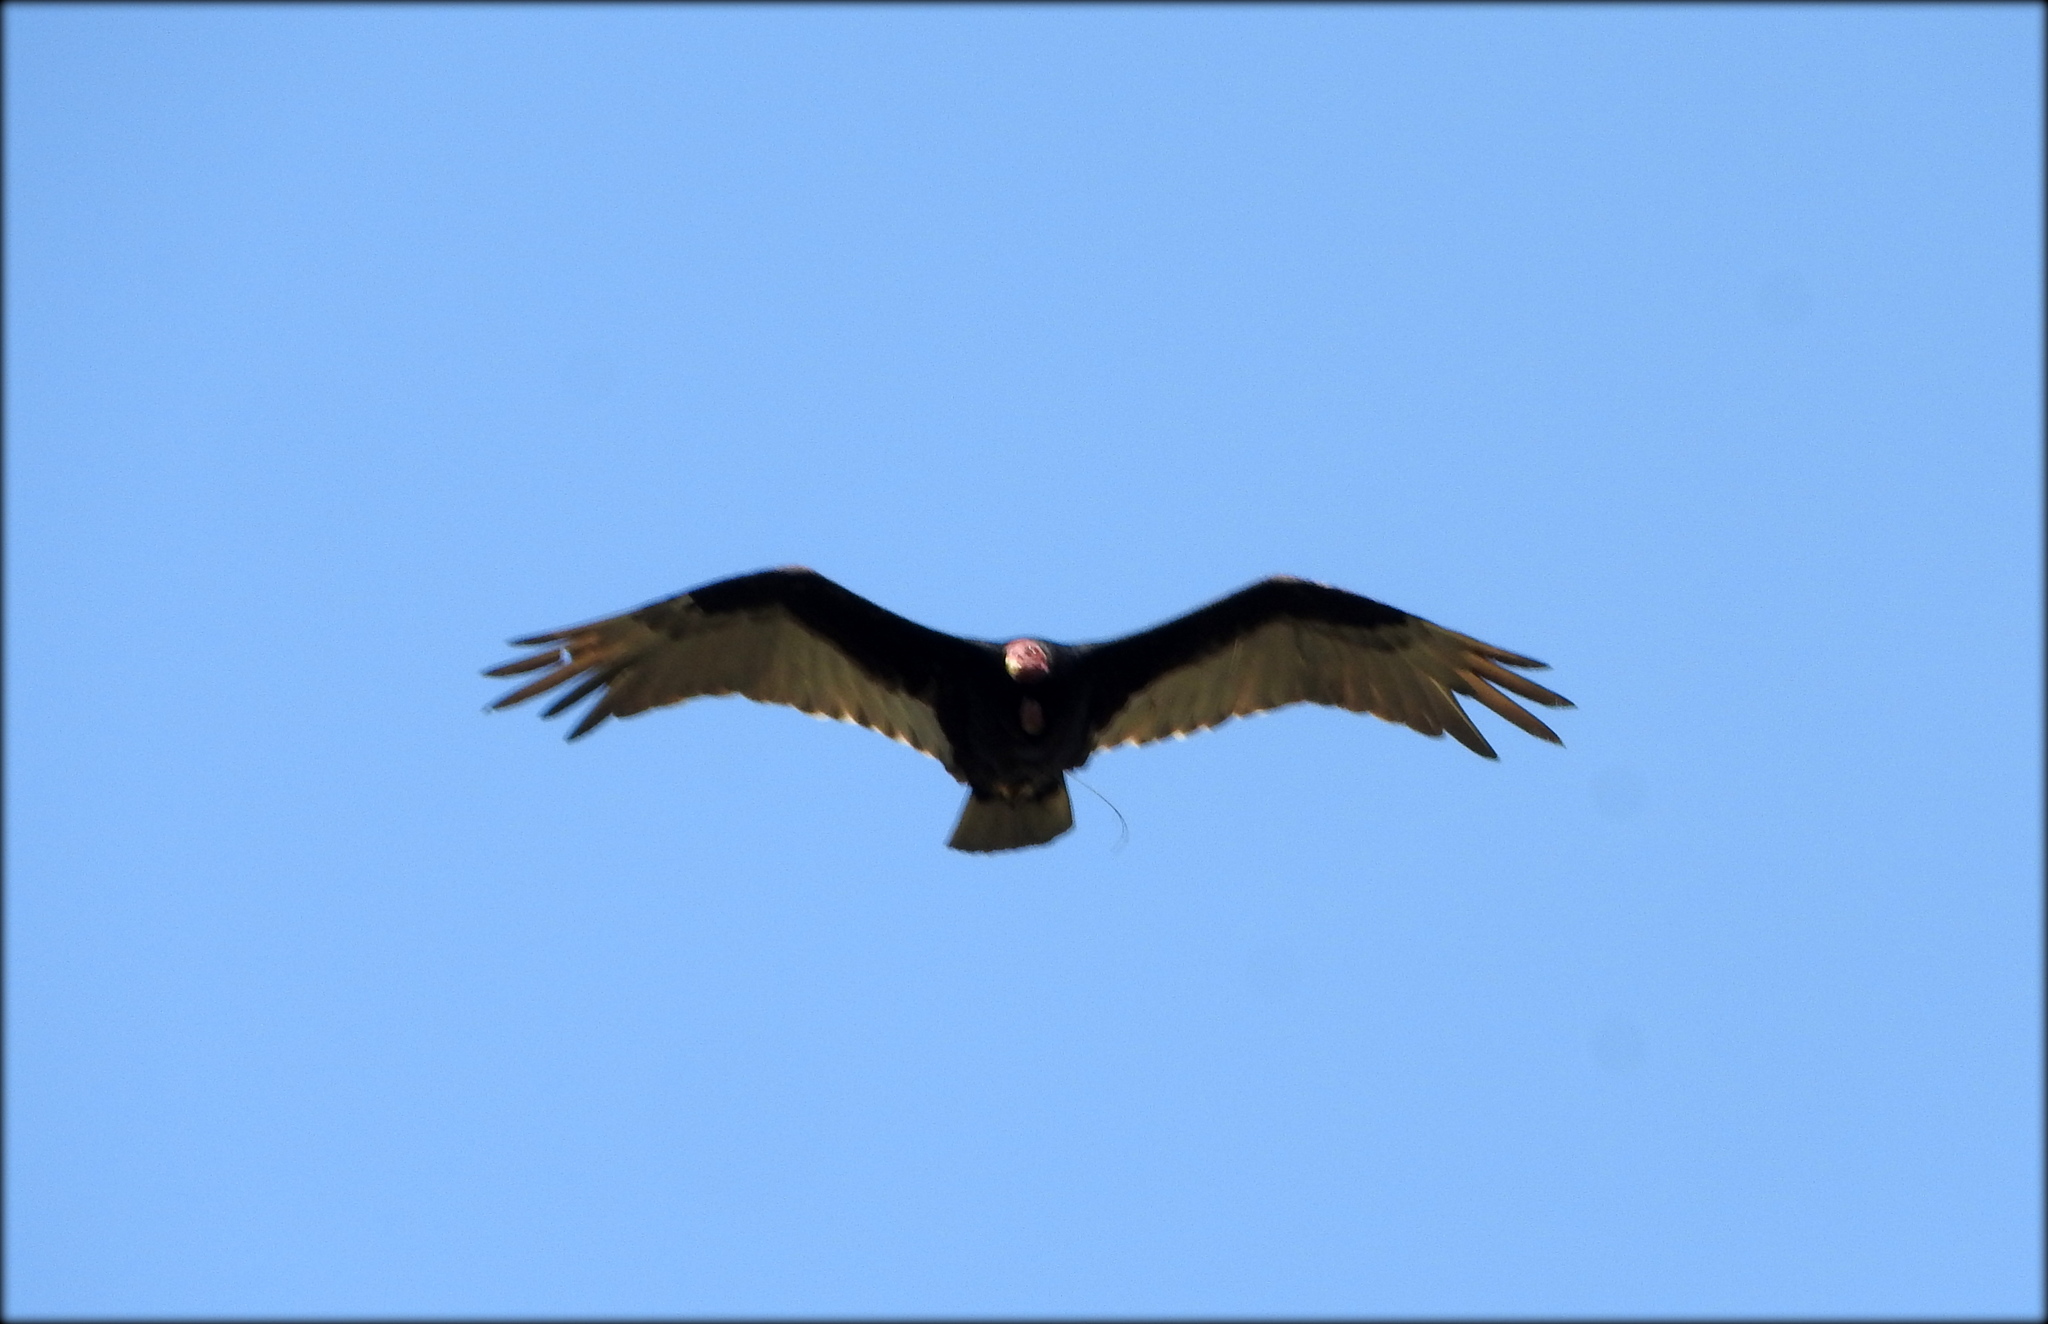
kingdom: Animalia
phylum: Chordata
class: Aves
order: Accipitriformes
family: Cathartidae
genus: Cathartes
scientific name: Cathartes aura
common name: Turkey vulture
